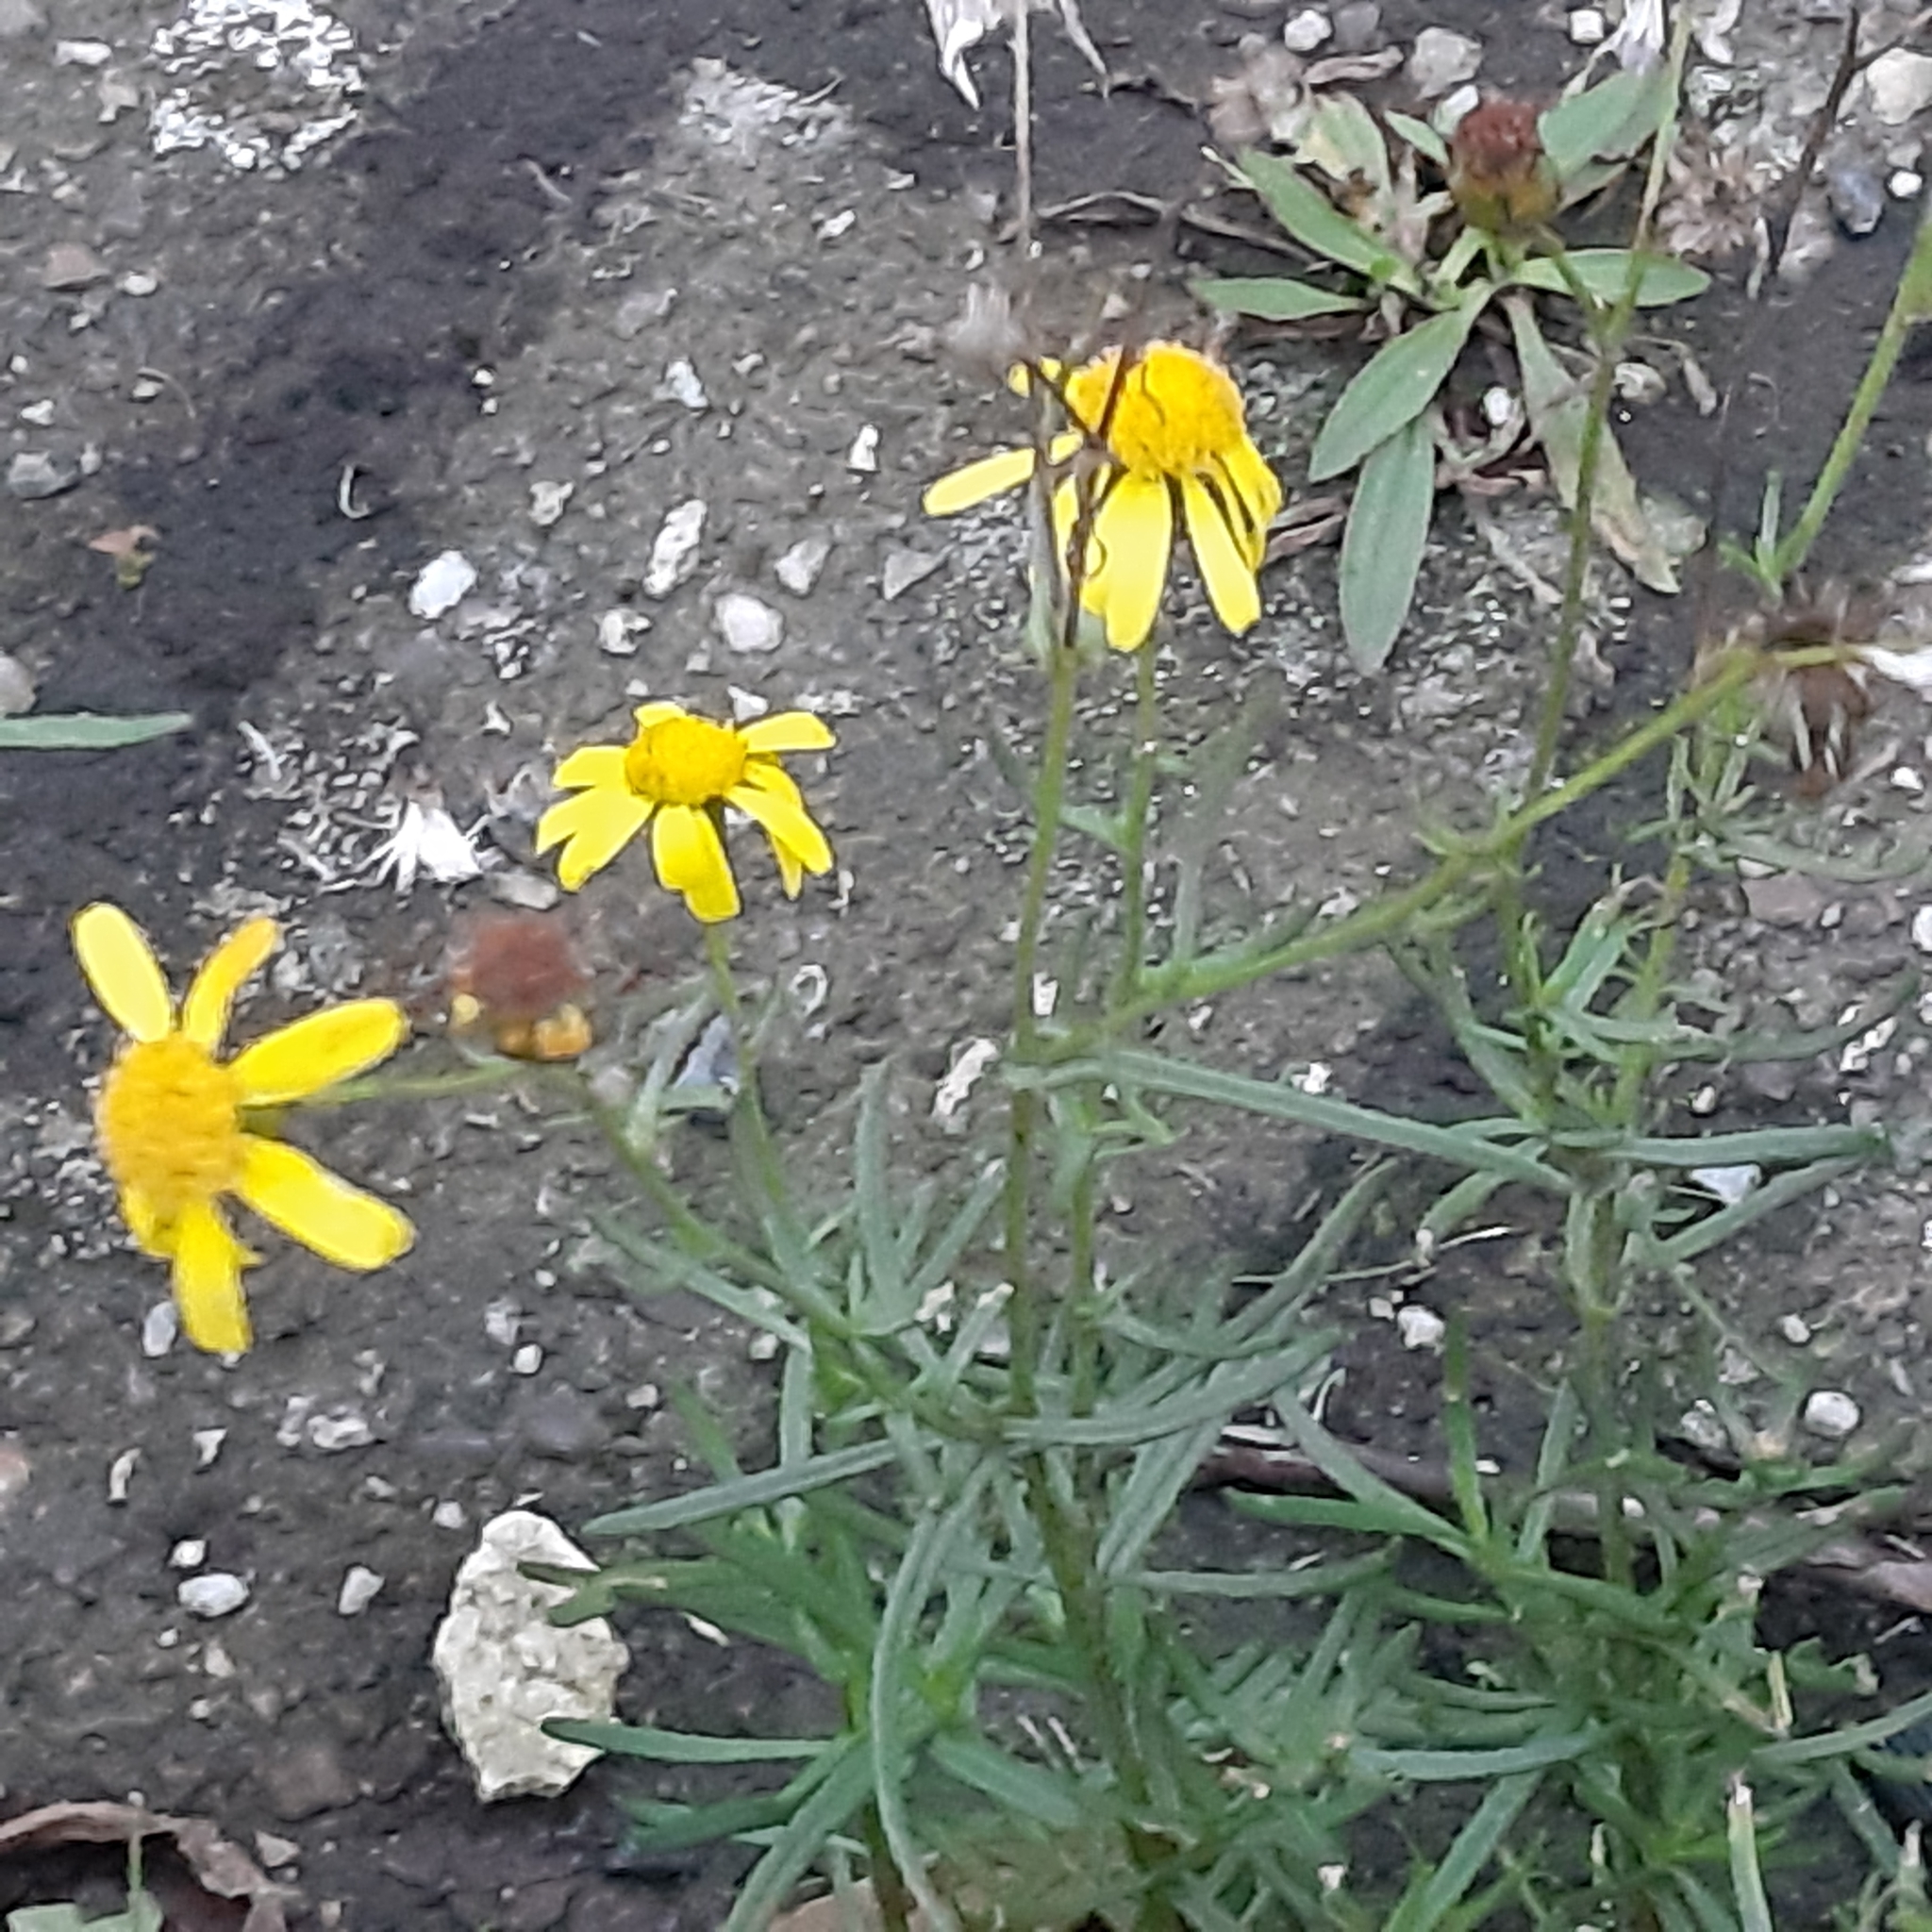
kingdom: Plantae
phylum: Tracheophyta
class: Magnoliopsida
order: Asterales
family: Asteraceae
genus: Senecio
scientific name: Senecio inaequidens
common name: Narrow-leaved ragwort
